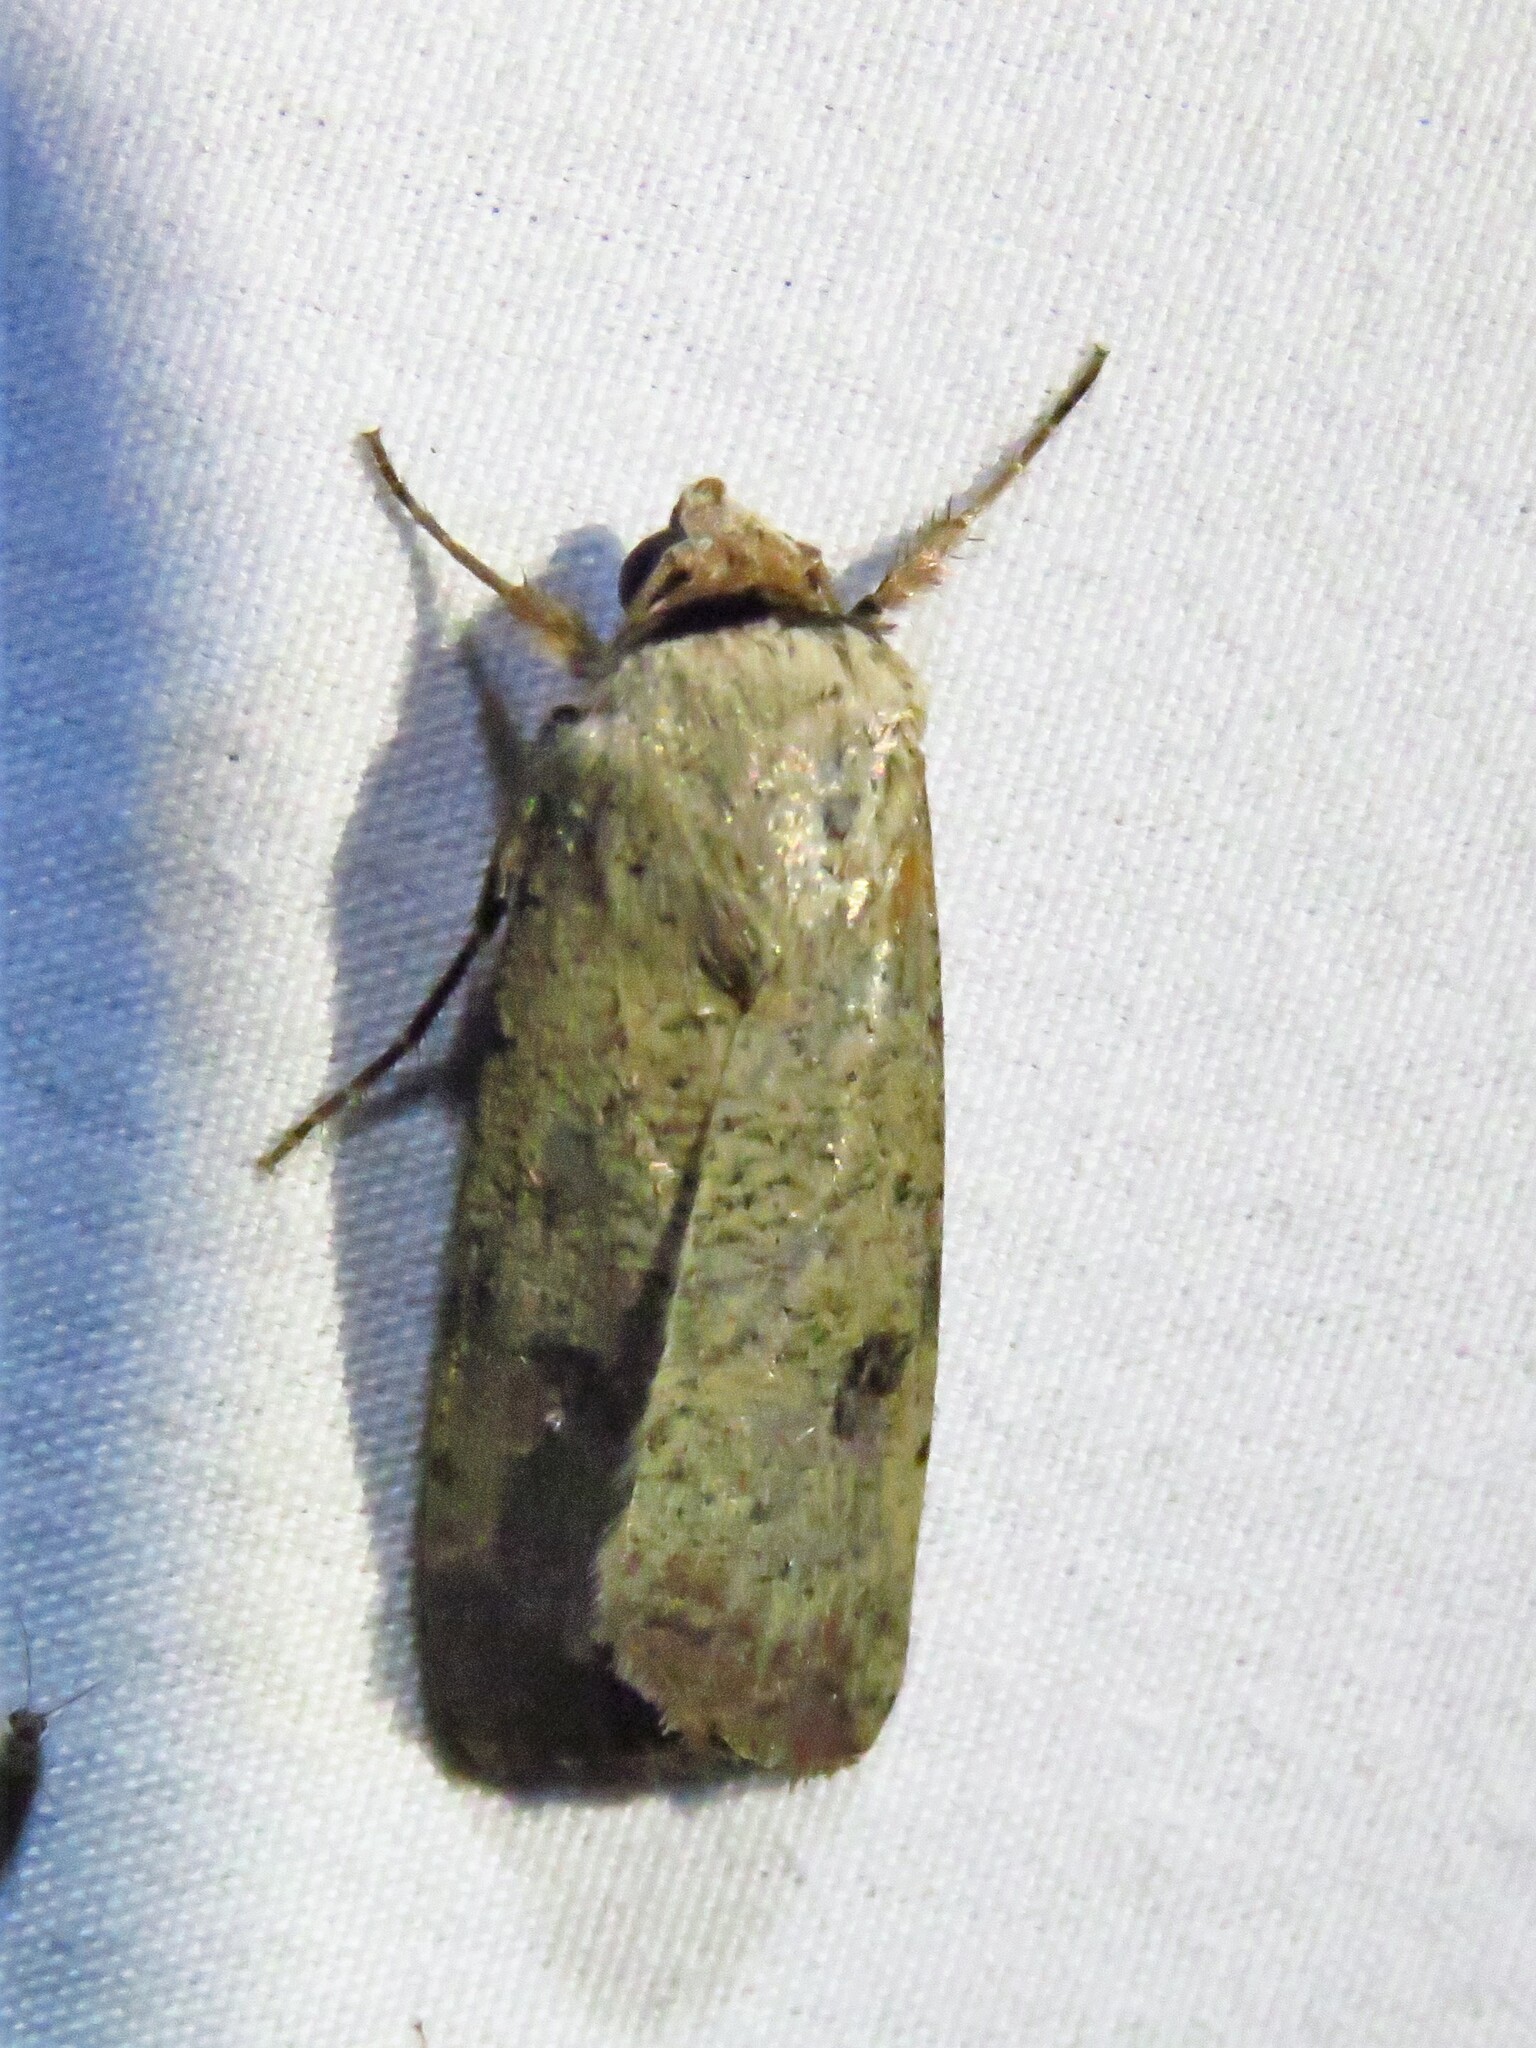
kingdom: Animalia
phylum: Arthropoda
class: Insecta
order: Lepidoptera
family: Noctuidae
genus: Anicla
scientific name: Anicla infecta
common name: Green cutworm
